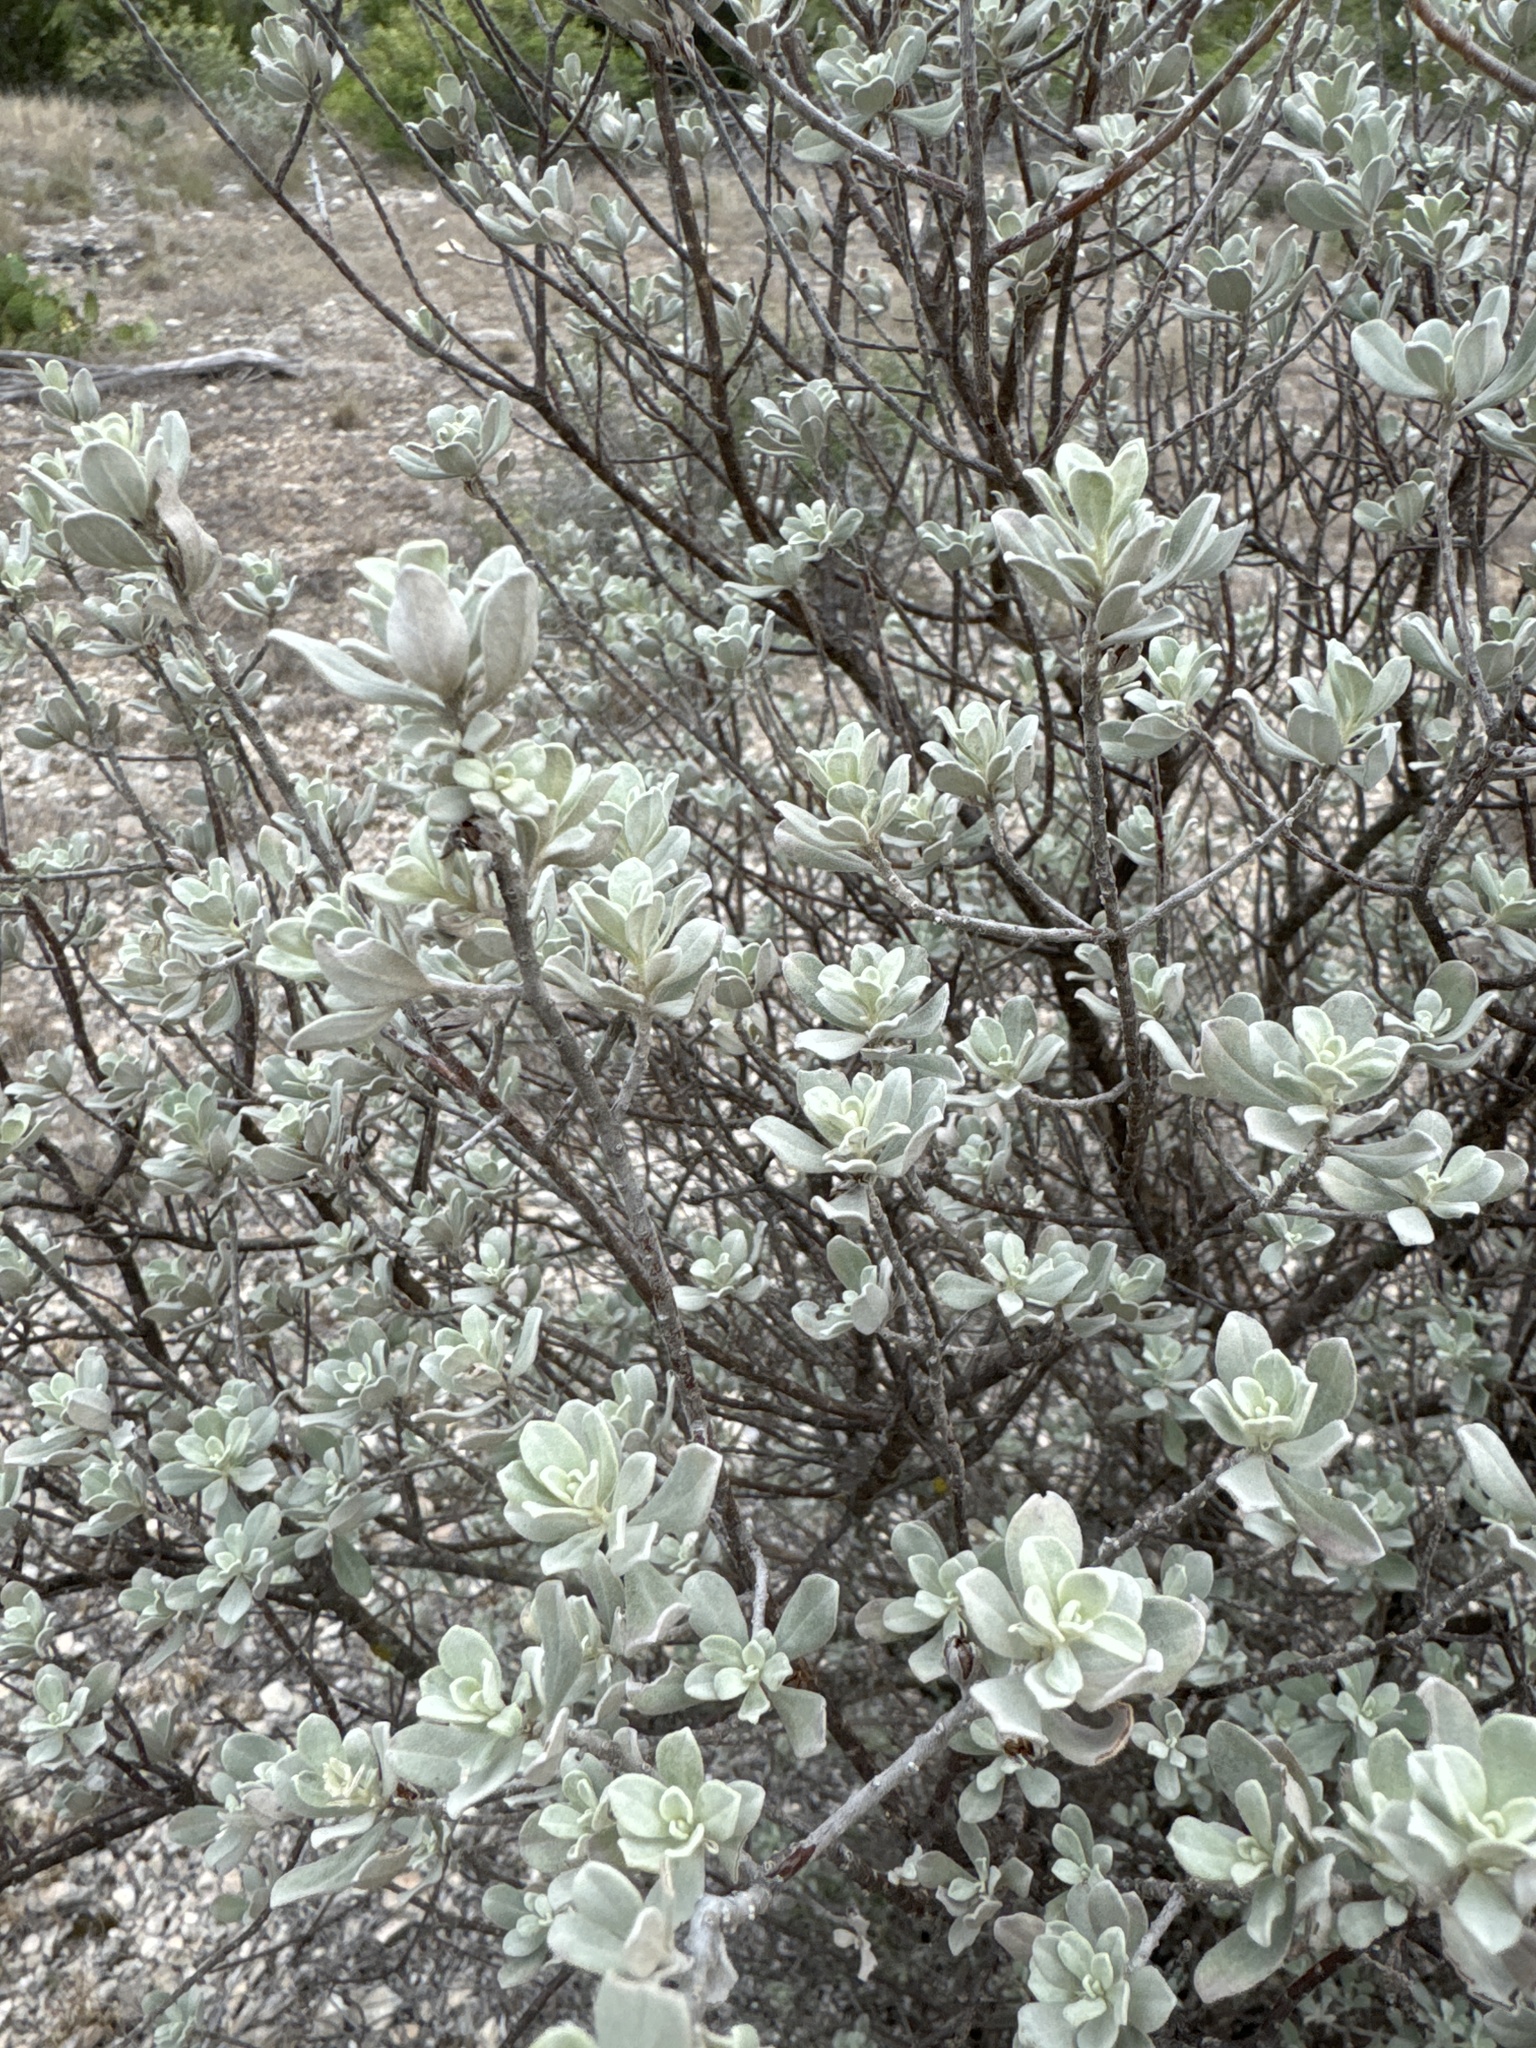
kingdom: Plantae
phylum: Tracheophyta
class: Magnoliopsida
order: Lamiales
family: Scrophulariaceae
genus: Leucophyllum
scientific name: Leucophyllum frutescens
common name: Texas silverleaf
